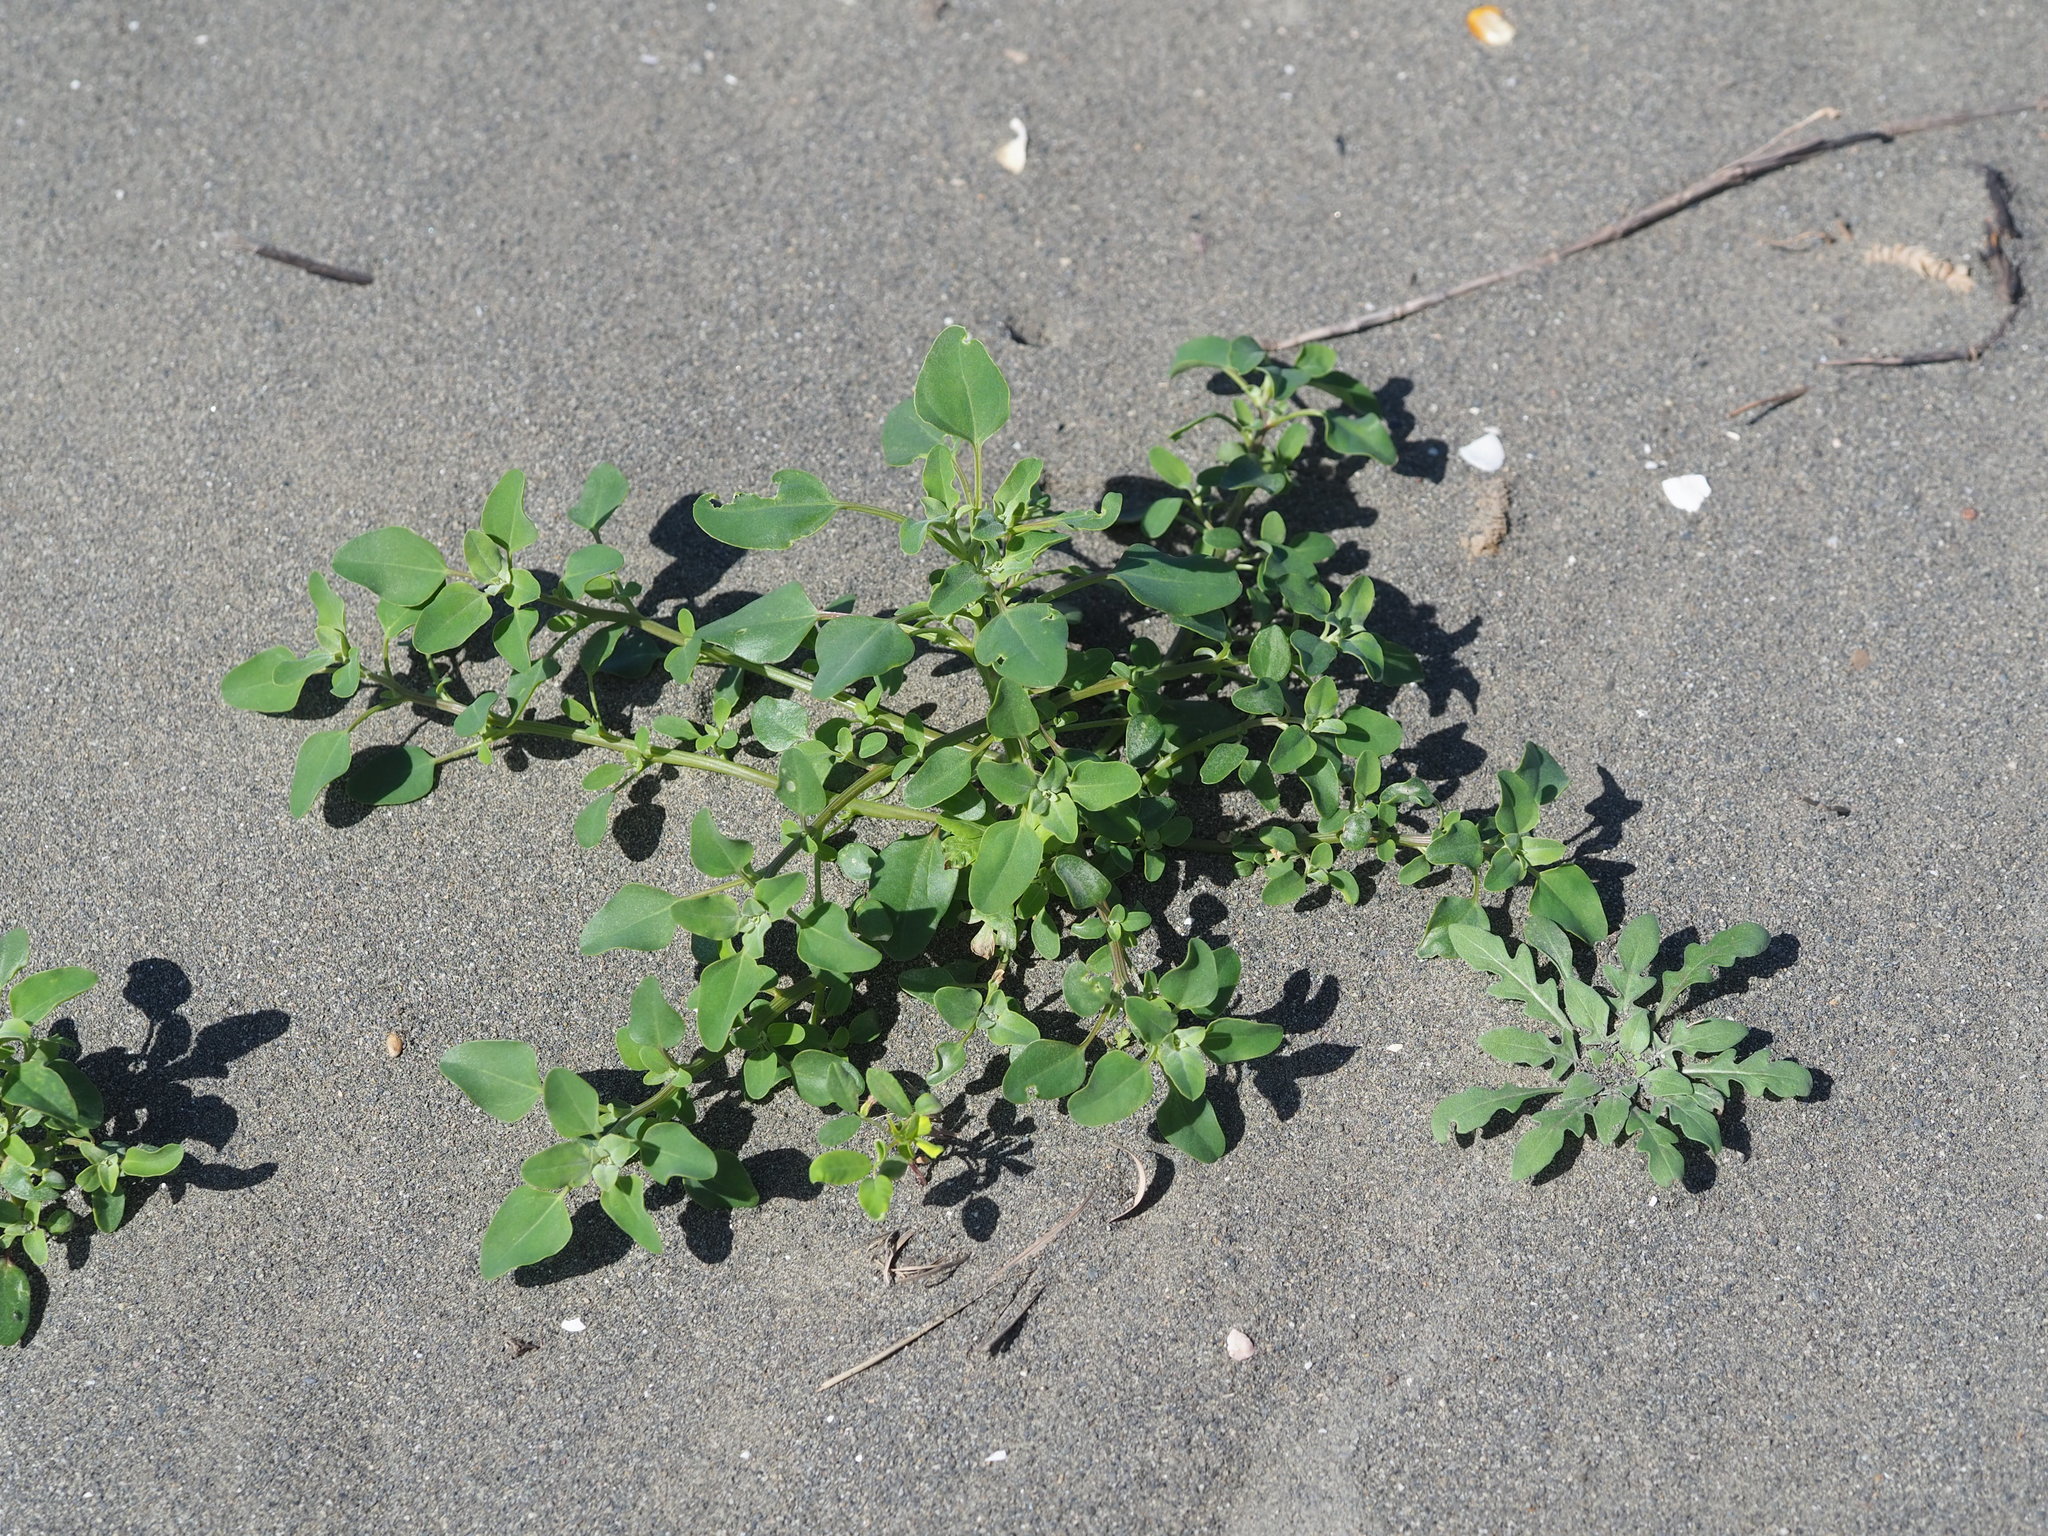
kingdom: Plantae
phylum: Tracheophyta
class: Magnoliopsida
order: Caryophyllales
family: Amaranthaceae
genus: Chenopodium
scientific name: Chenopodium acuminatum
